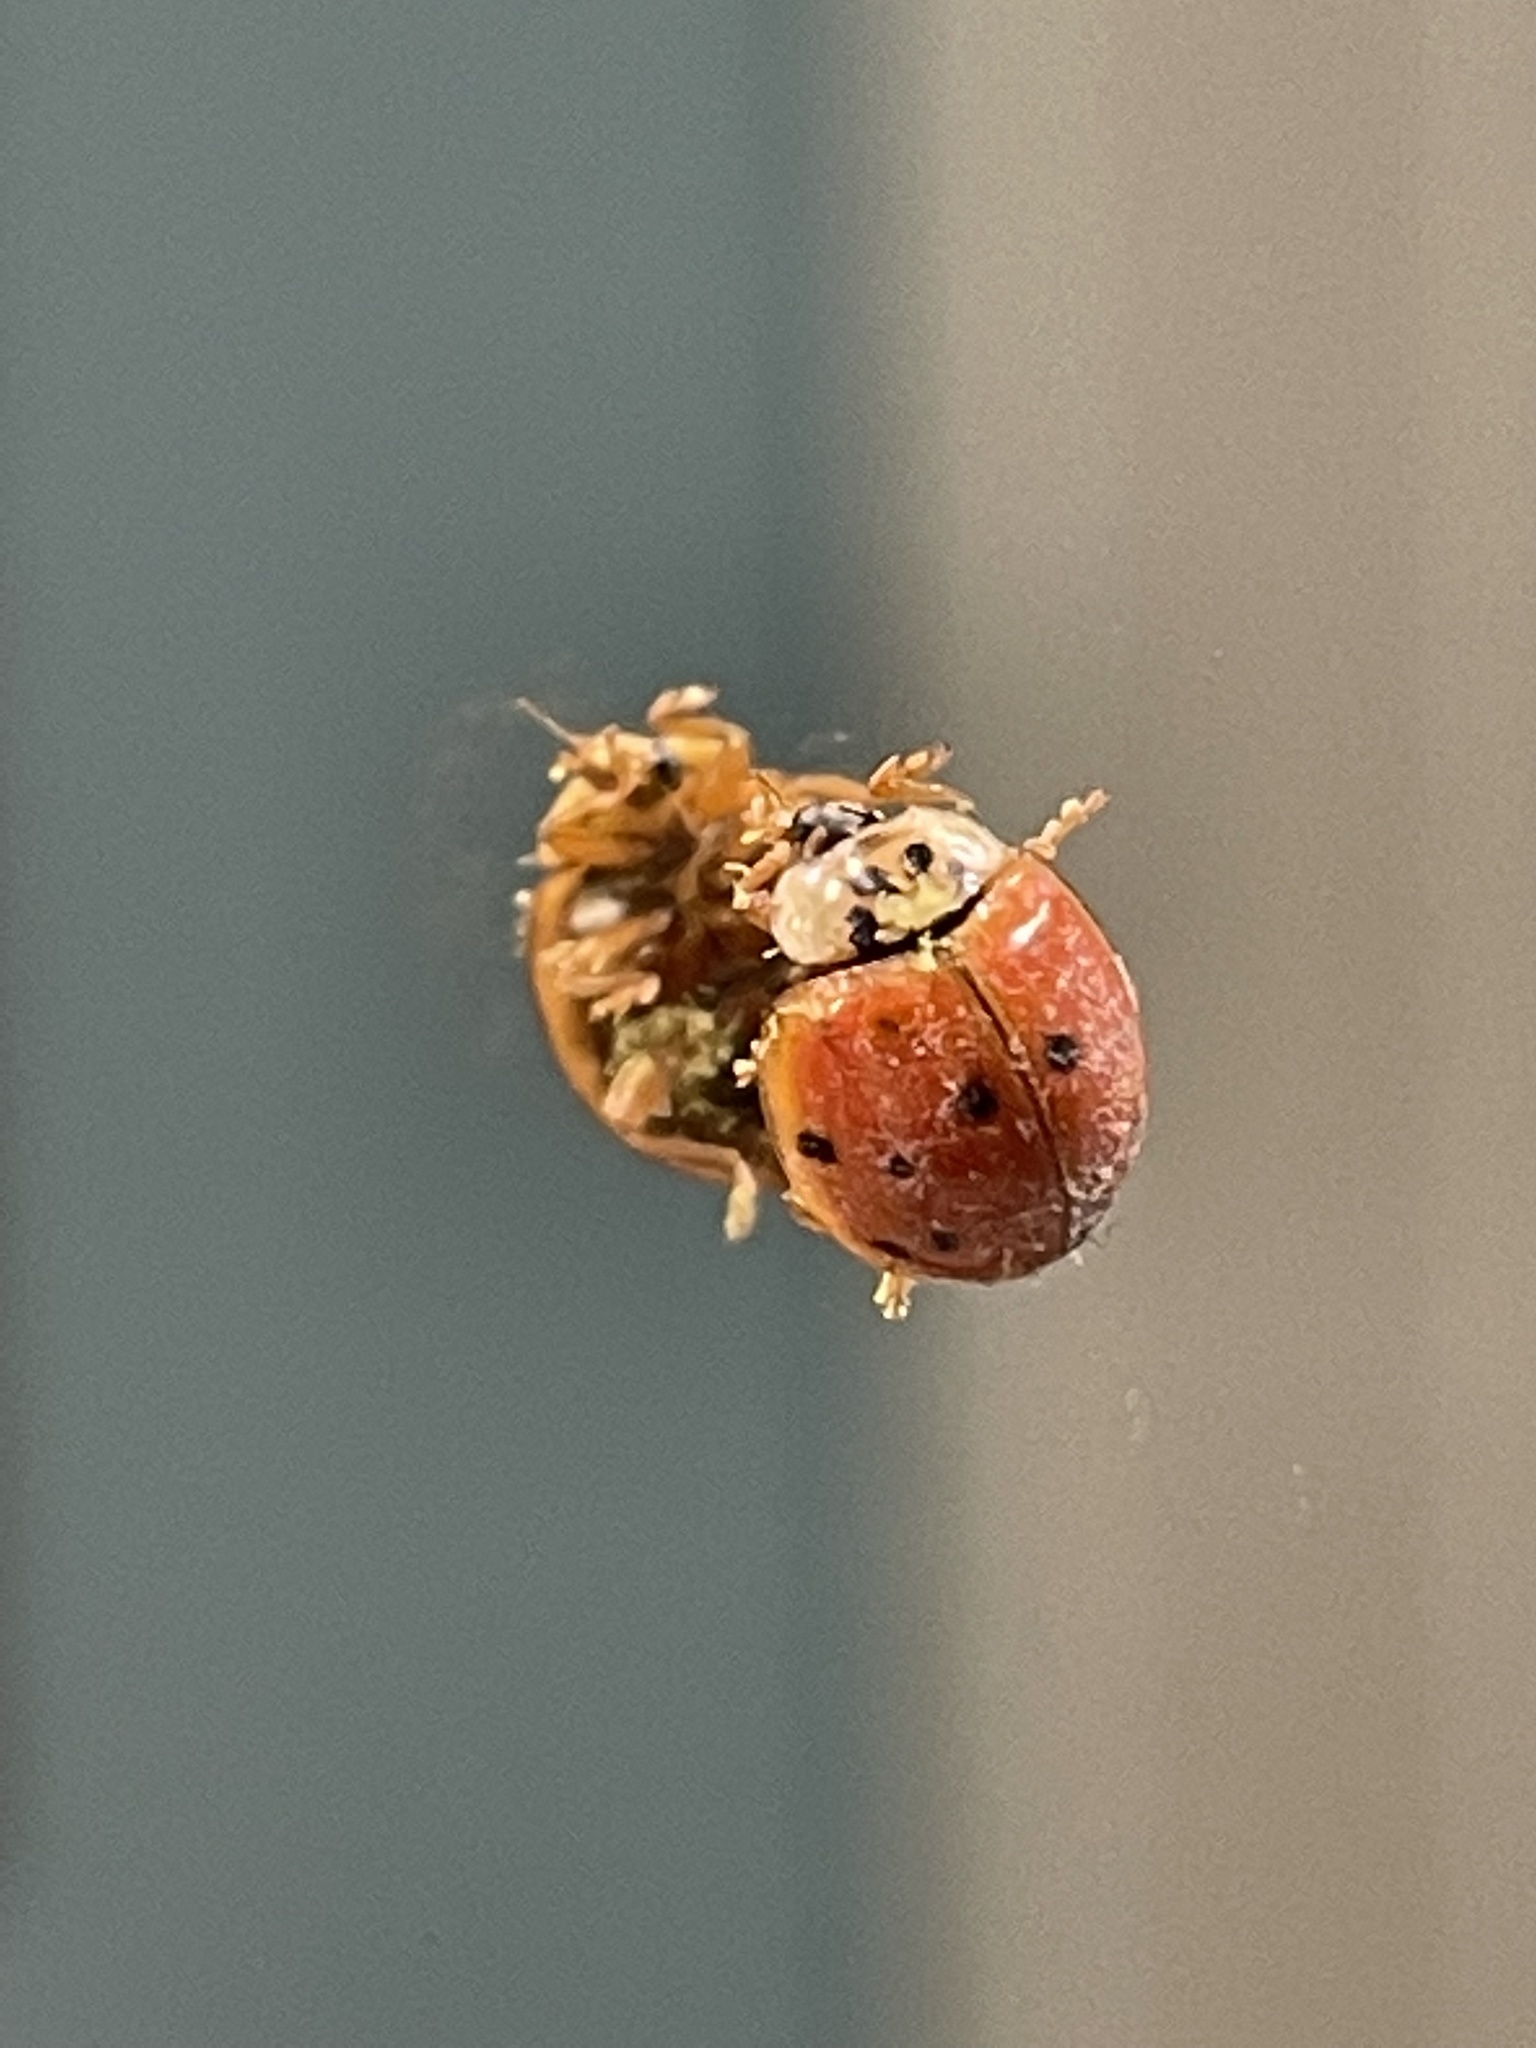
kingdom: Animalia
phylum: Arthropoda
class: Insecta
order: Coleoptera
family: Coccinellidae
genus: Harmonia
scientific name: Harmonia axyridis
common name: Harlequin ladybird
